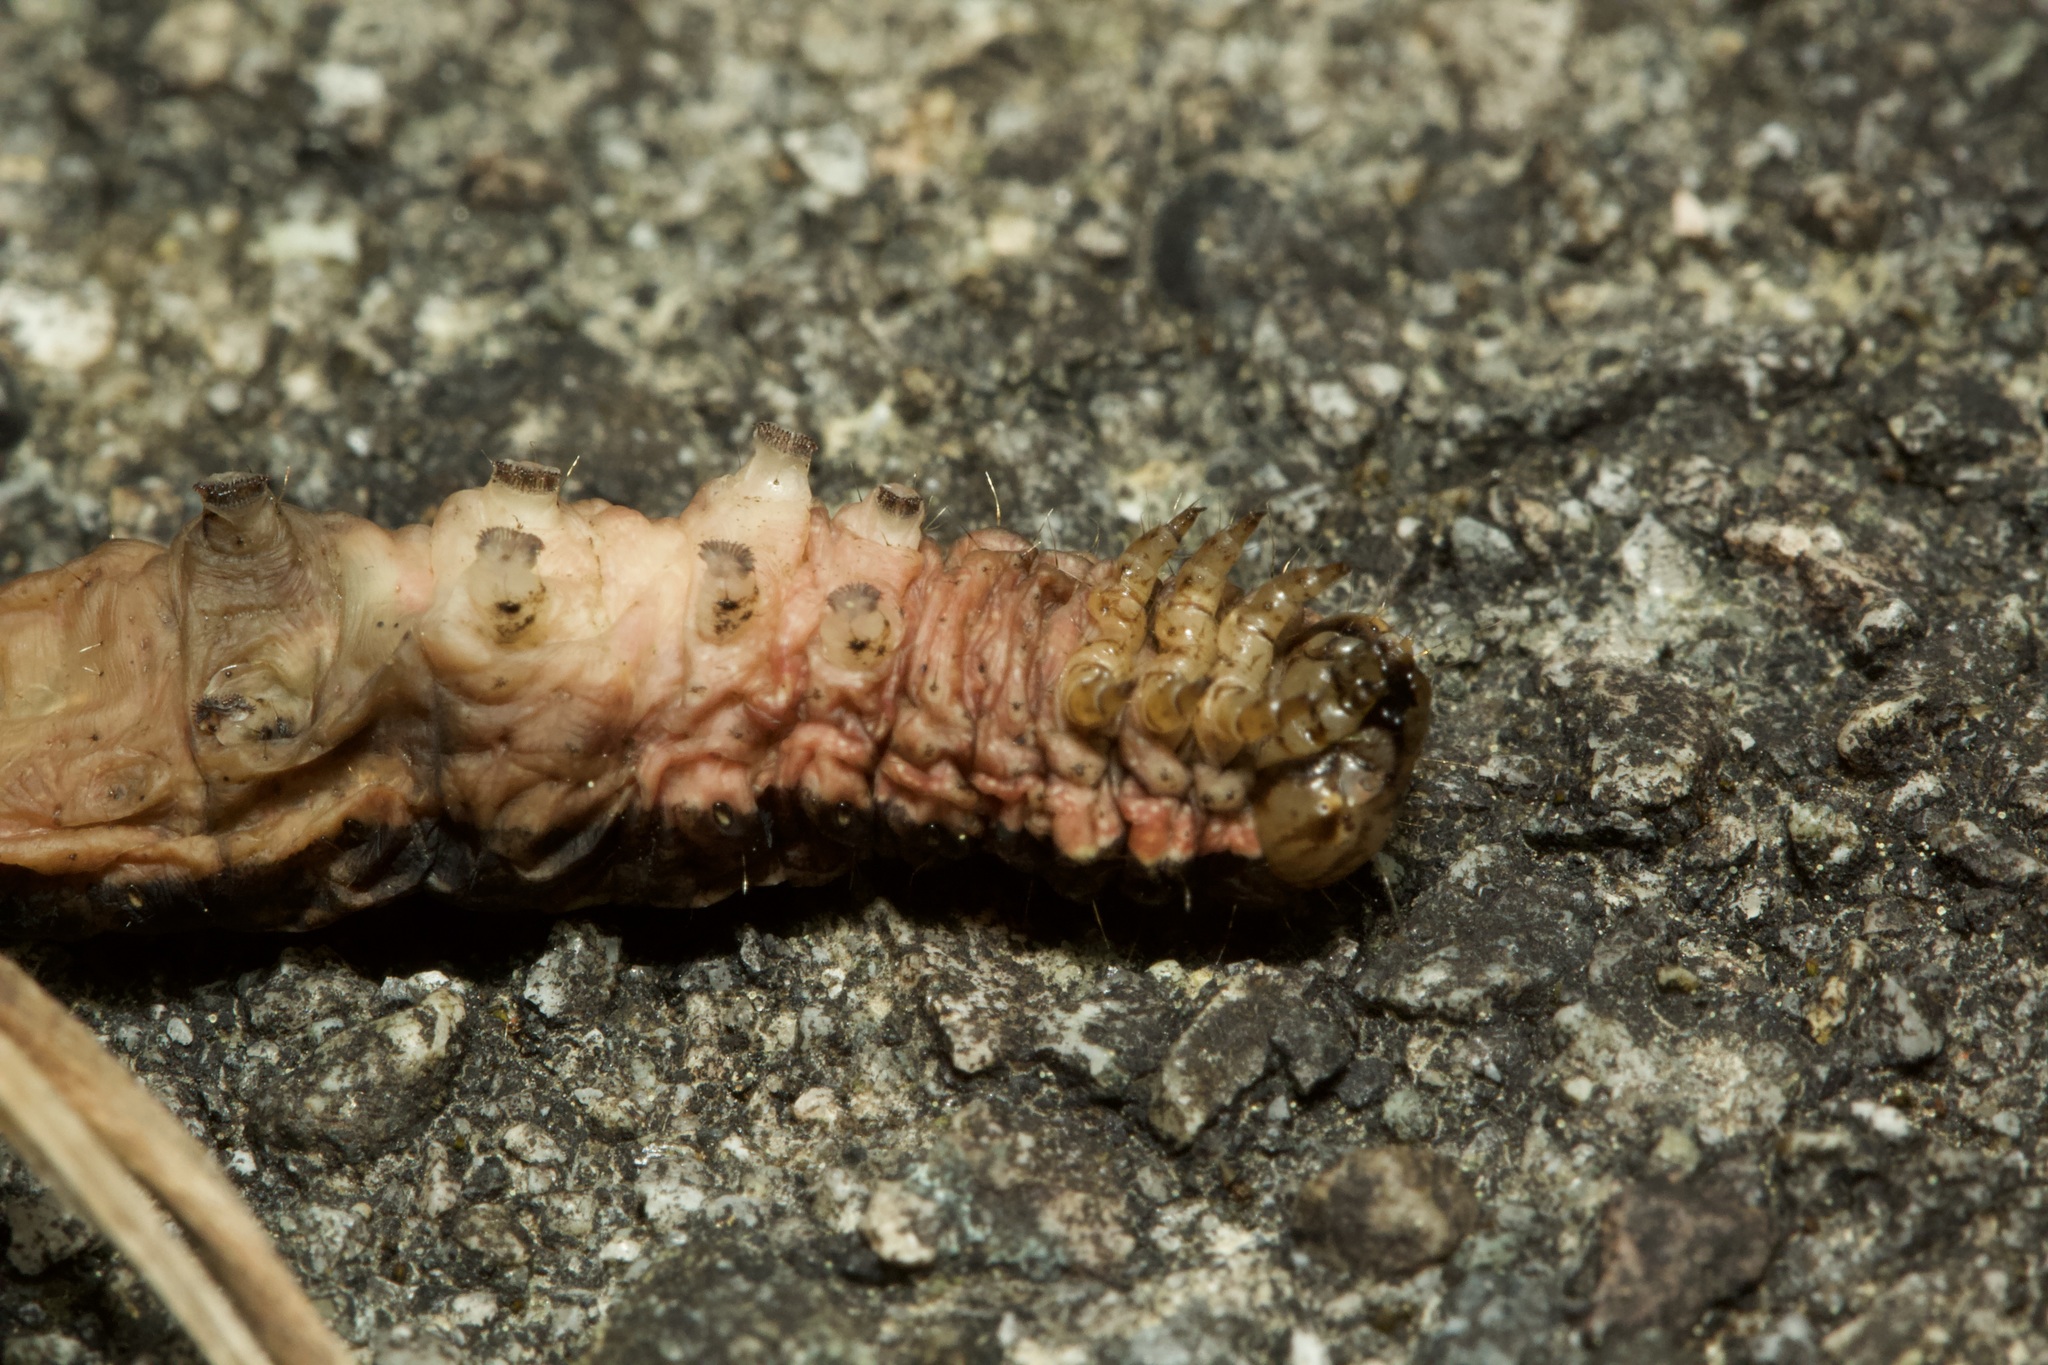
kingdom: Animalia
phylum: Arthropoda
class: Insecta
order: Lepidoptera
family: Noctuidae
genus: Noctua
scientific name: Noctua pronuba
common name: Large yellow underwing
